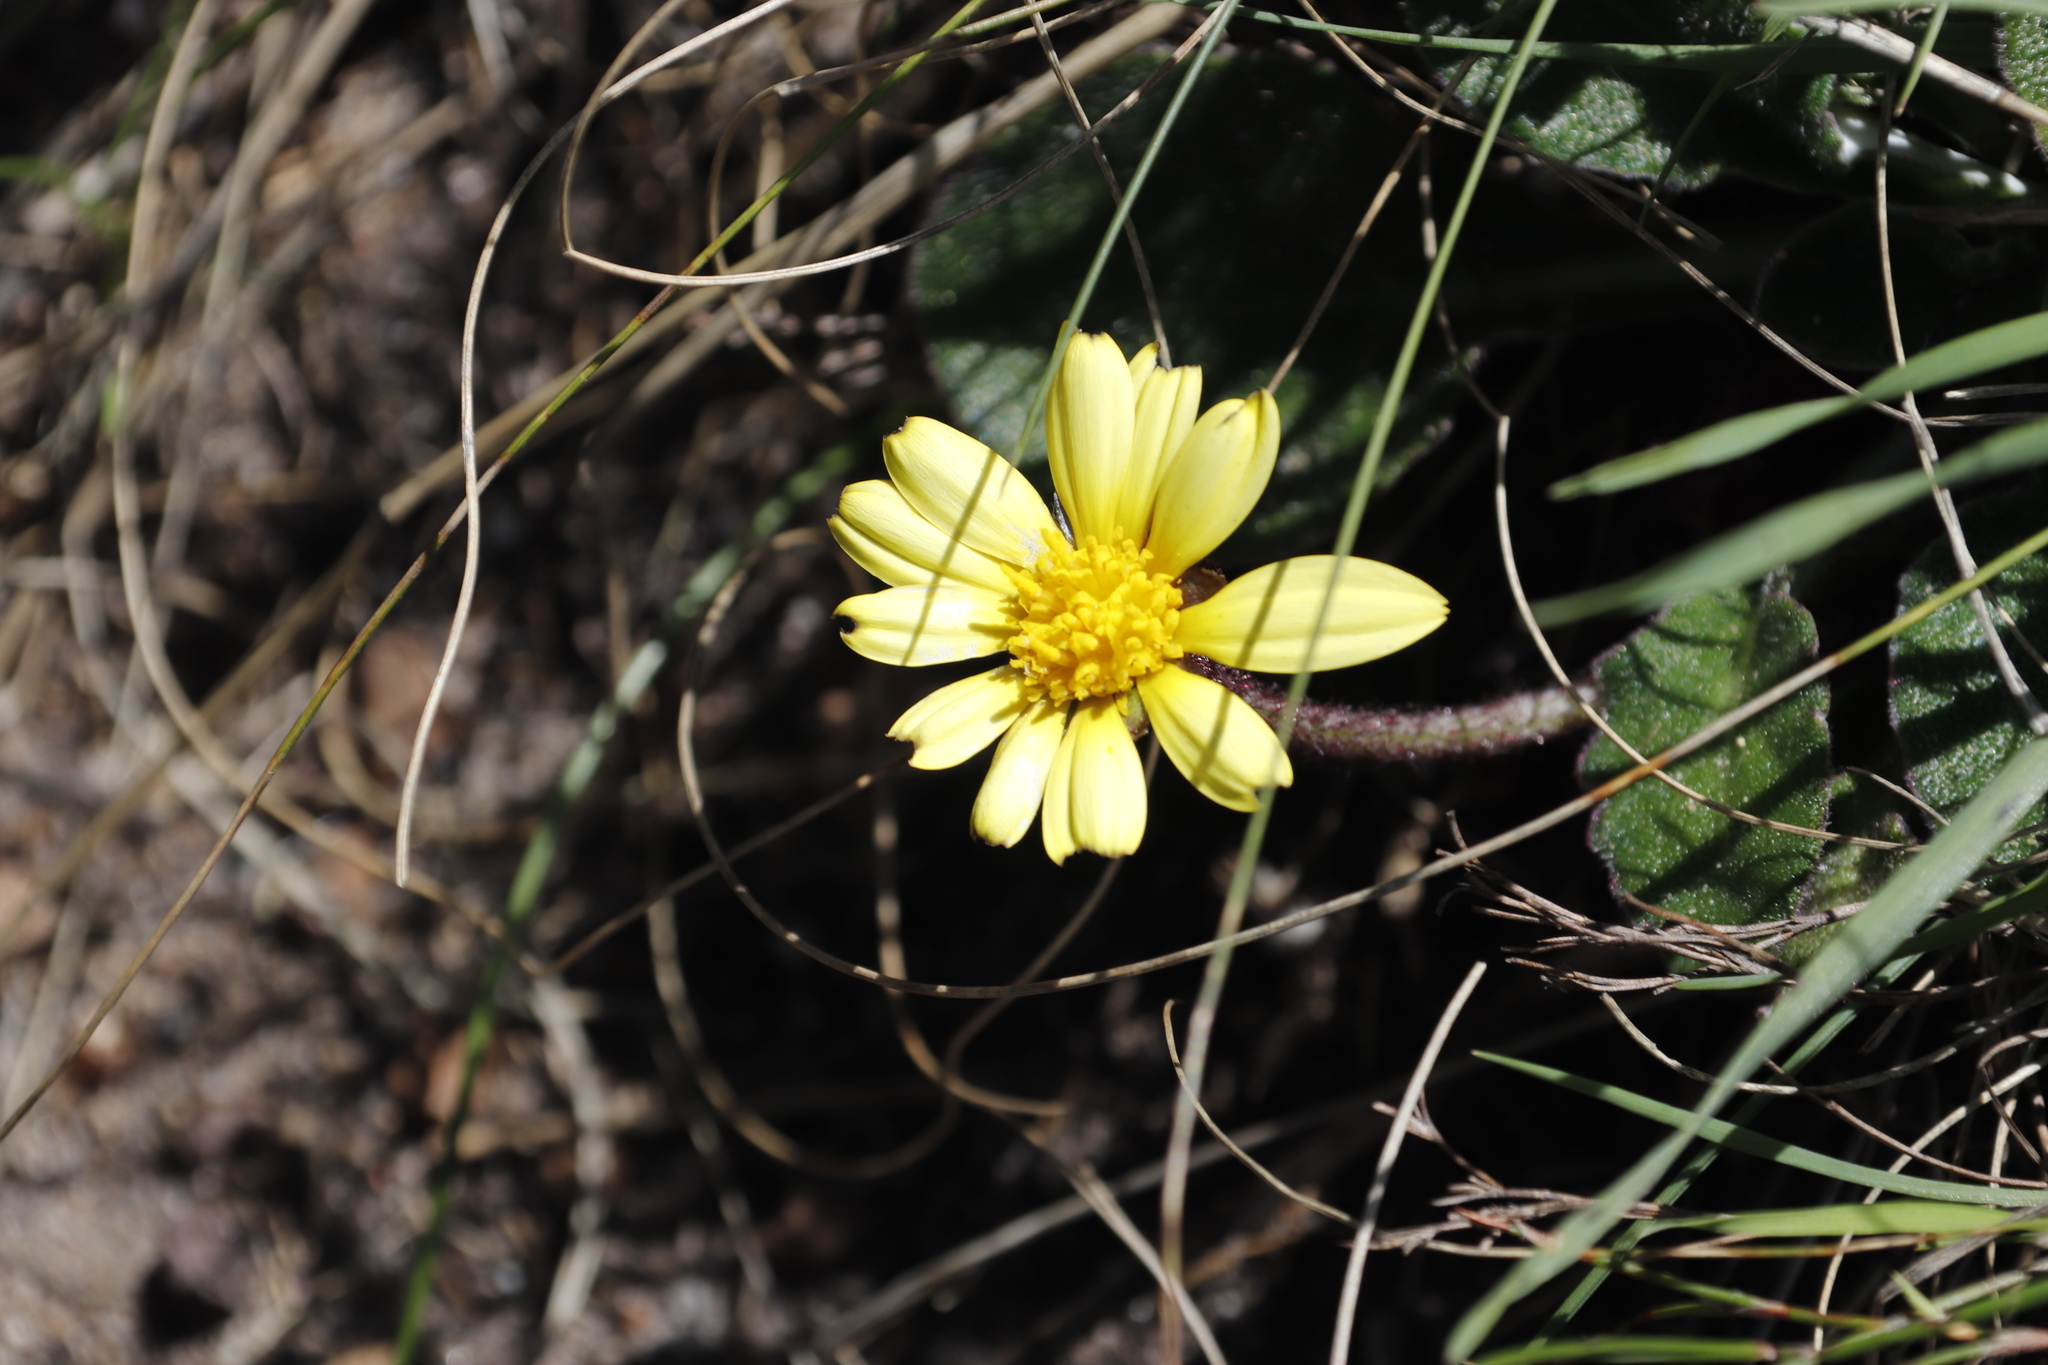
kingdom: Plantae
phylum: Tracheophyta
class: Magnoliopsida
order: Asterales
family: Asteraceae
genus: Haplocarpha
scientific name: Haplocarpha lanata
